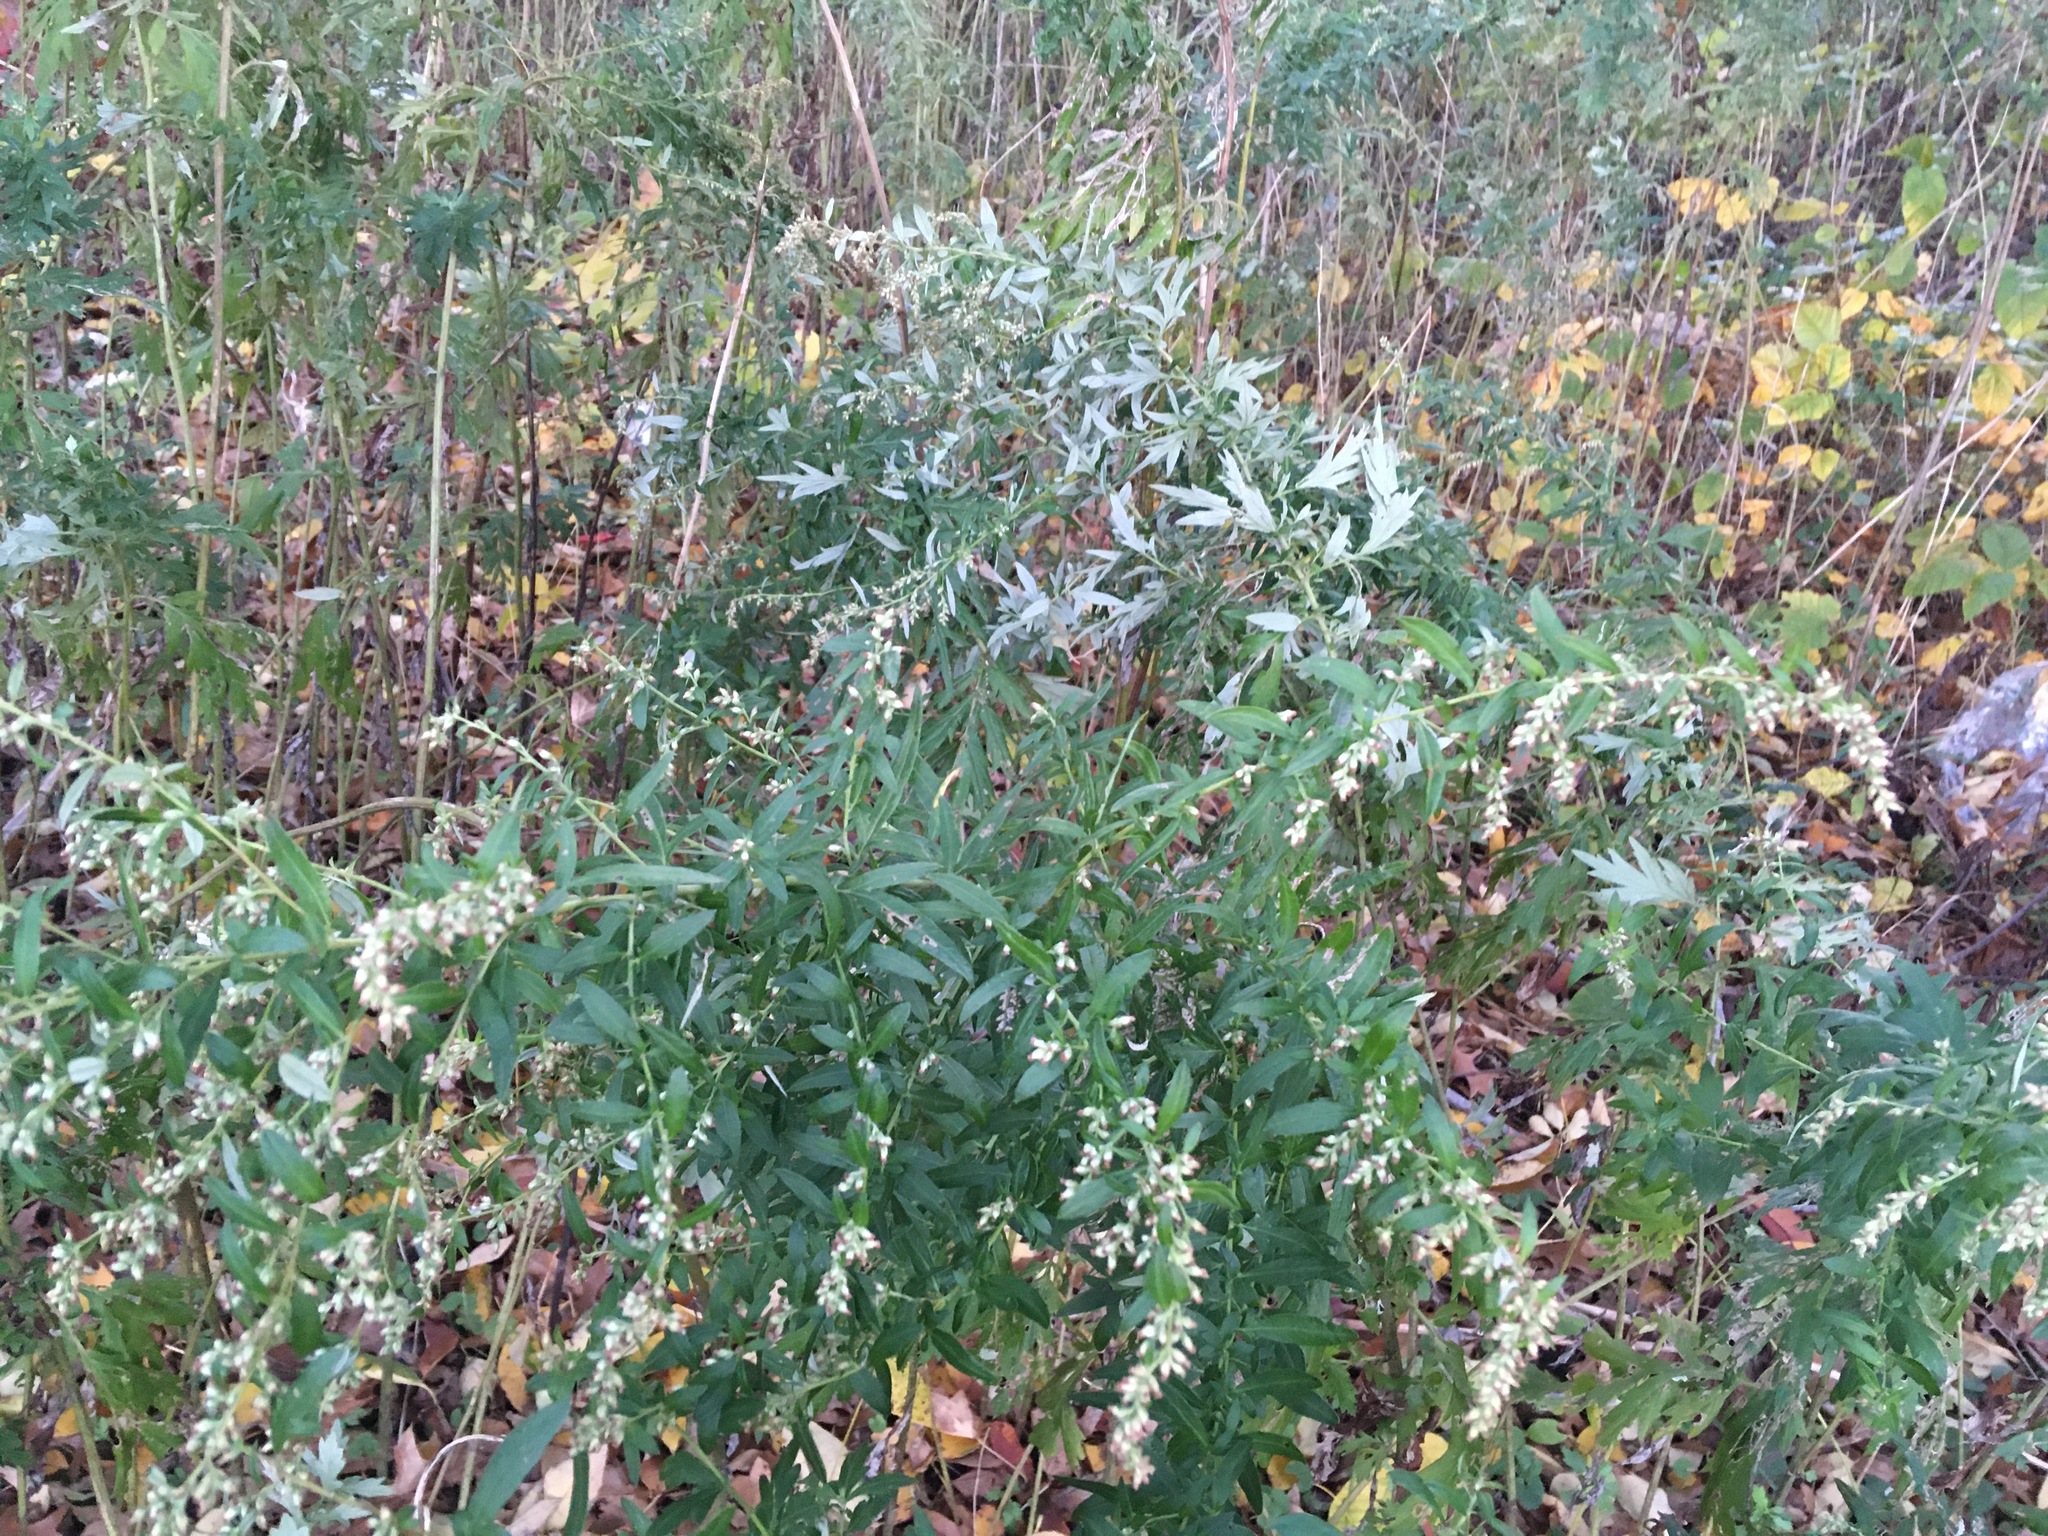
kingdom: Plantae
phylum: Tracheophyta
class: Magnoliopsida
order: Asterales
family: Asteraceae
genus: Artemisia
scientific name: Artemisia vulgaris
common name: Mugwort
